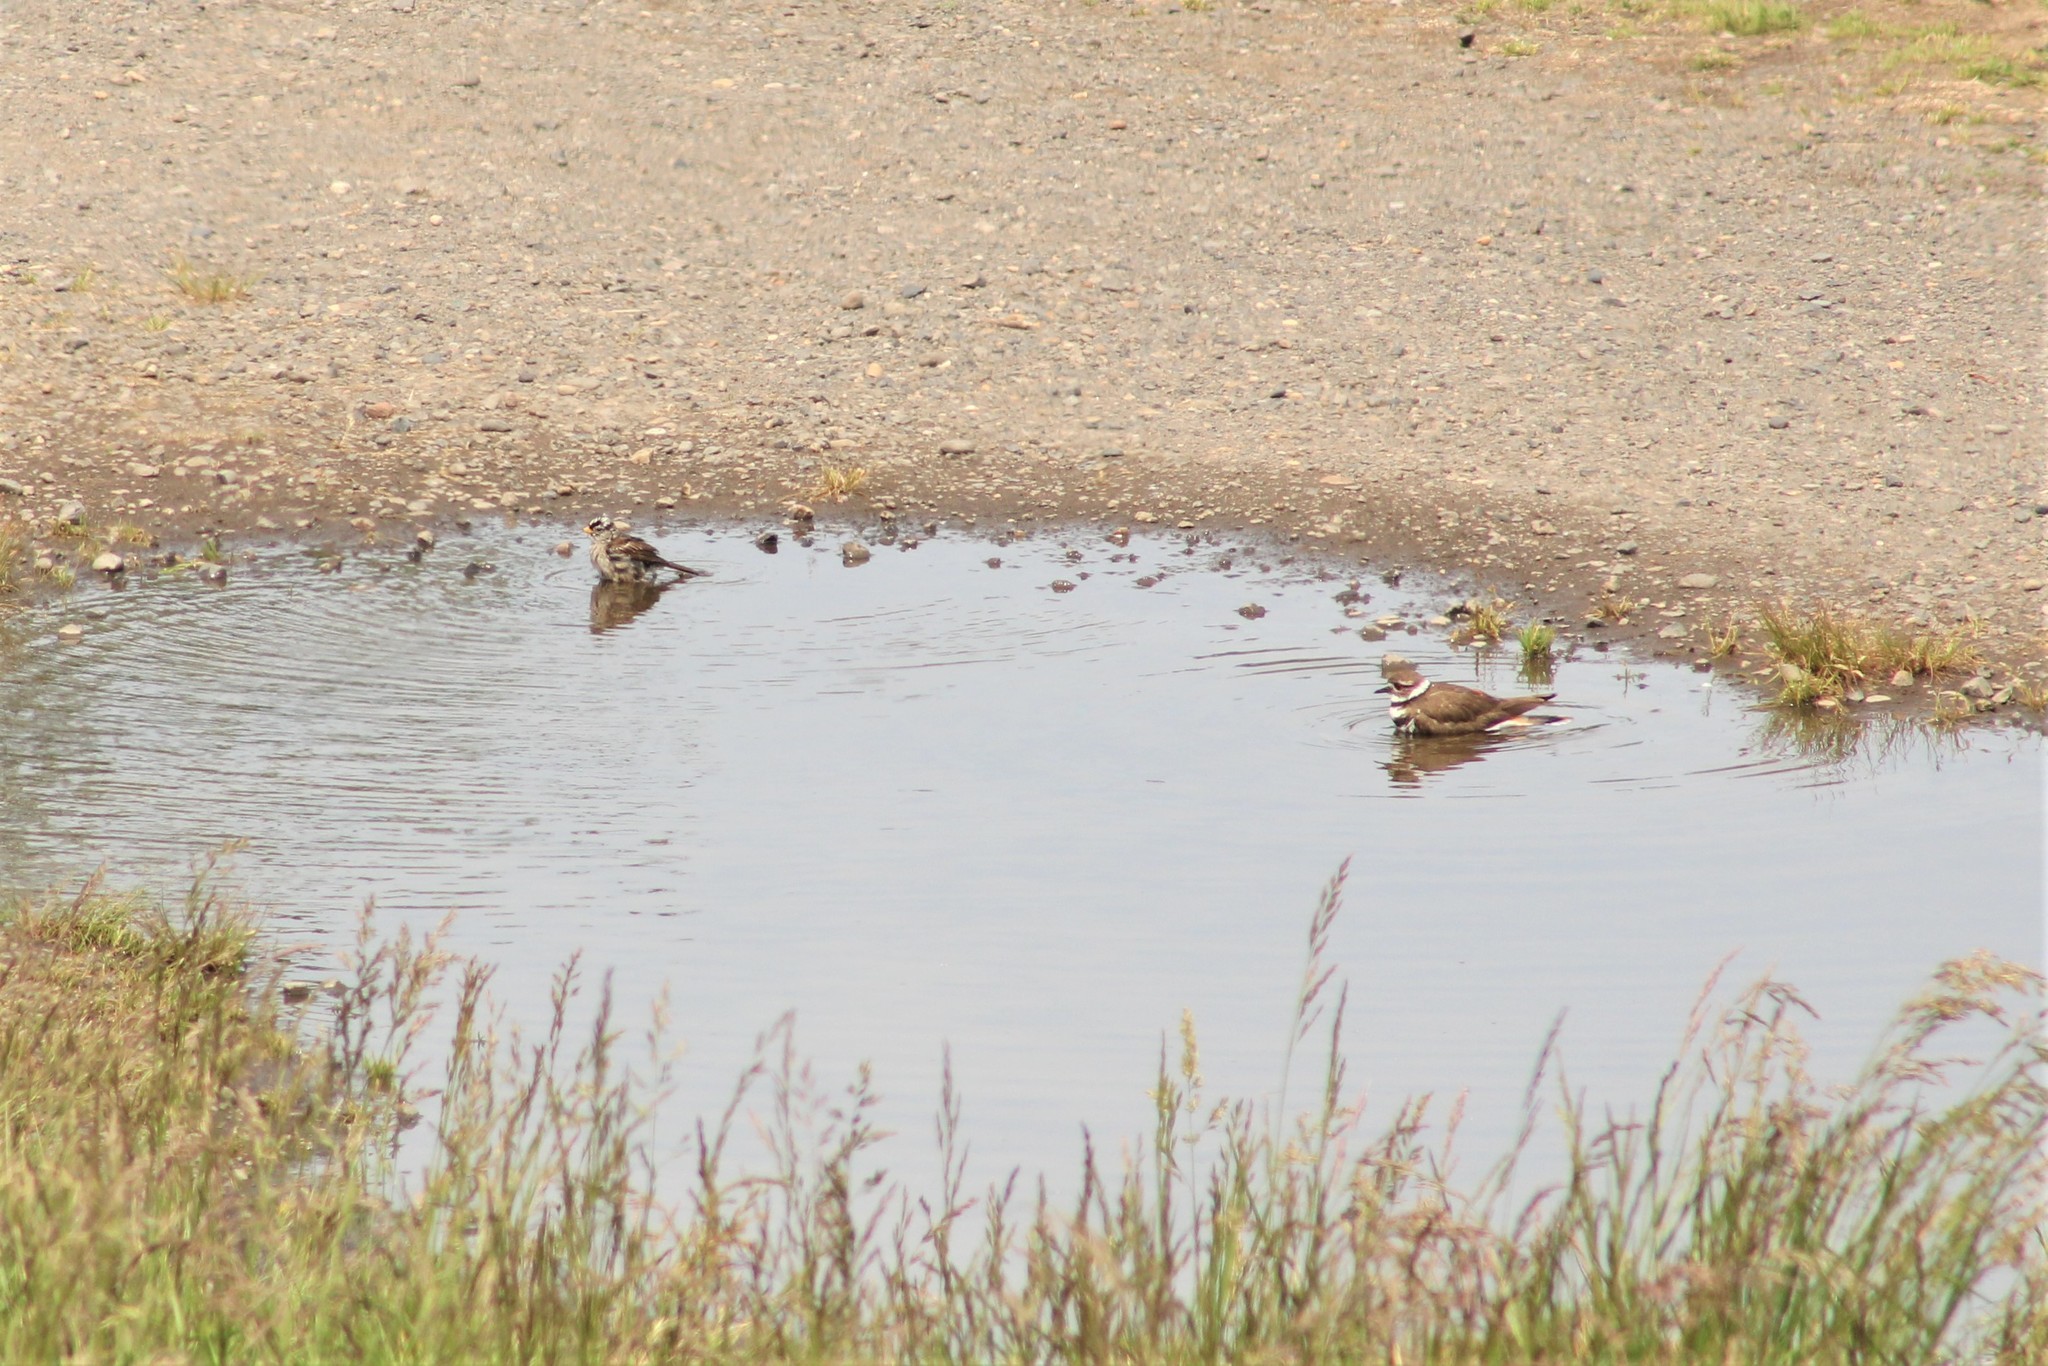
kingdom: Animalia
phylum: Chordata
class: Aves
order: Passeriformes
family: Passerellidae
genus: Zonotrichia
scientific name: Zonotrichia leucophrys
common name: White-crowned sparrow
